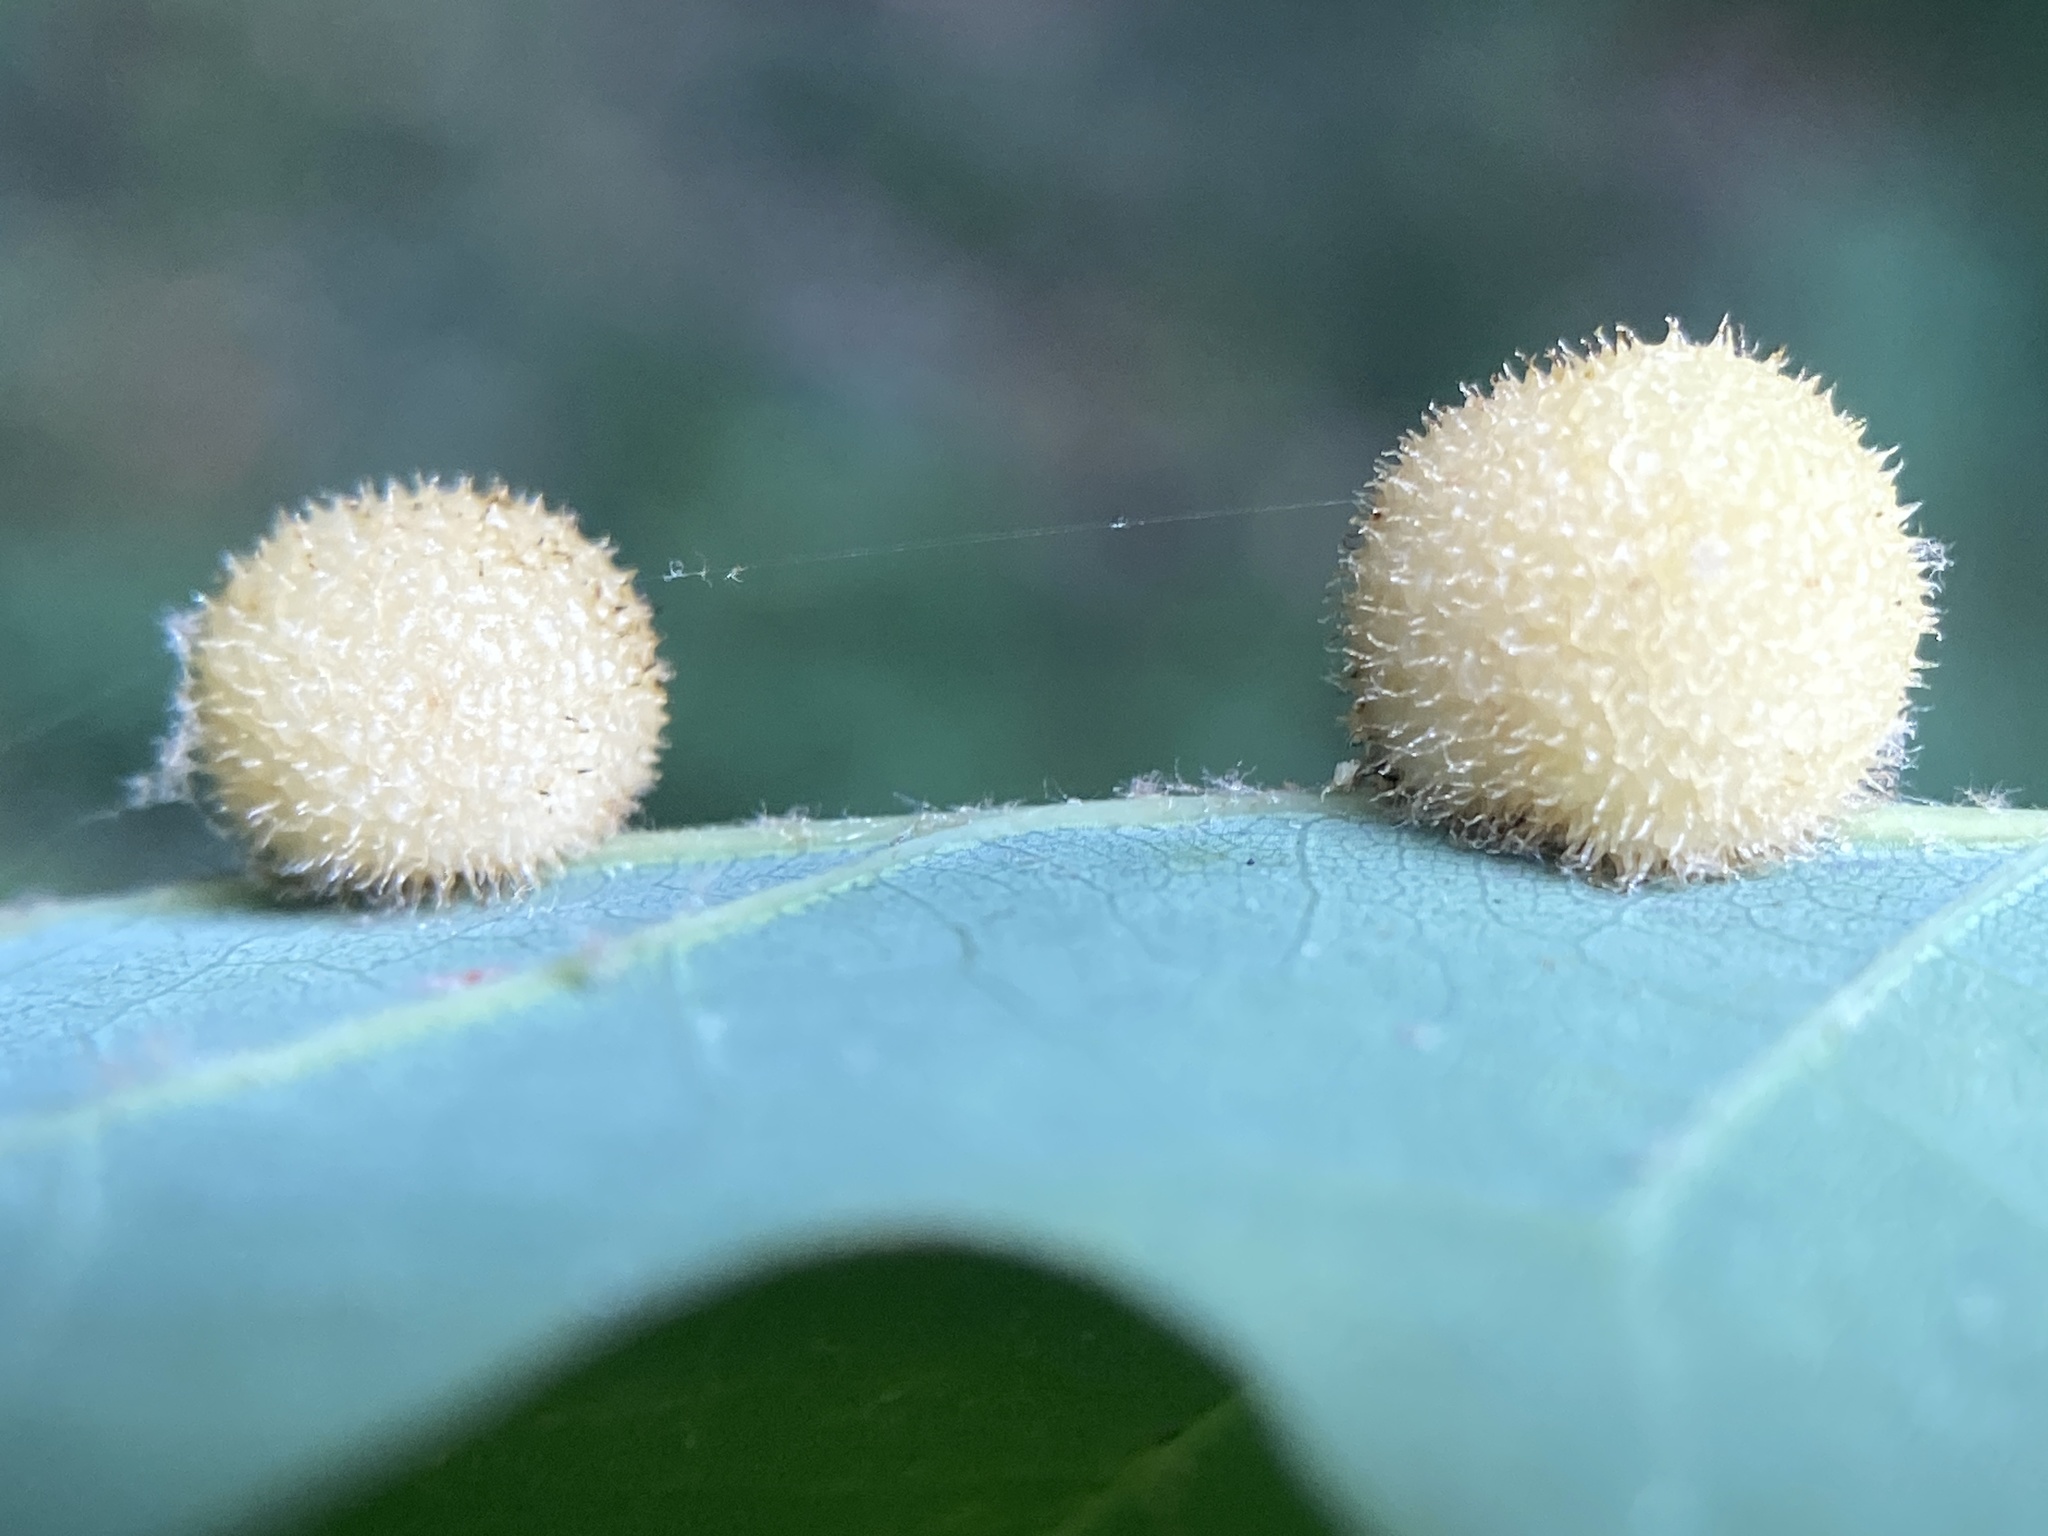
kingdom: Animalia
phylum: Arthropoda
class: Insecta
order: Hymenoptera
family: Cynipidae
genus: Acraspis
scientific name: Acraspis erinacei
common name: Hedgehog gall wasp
